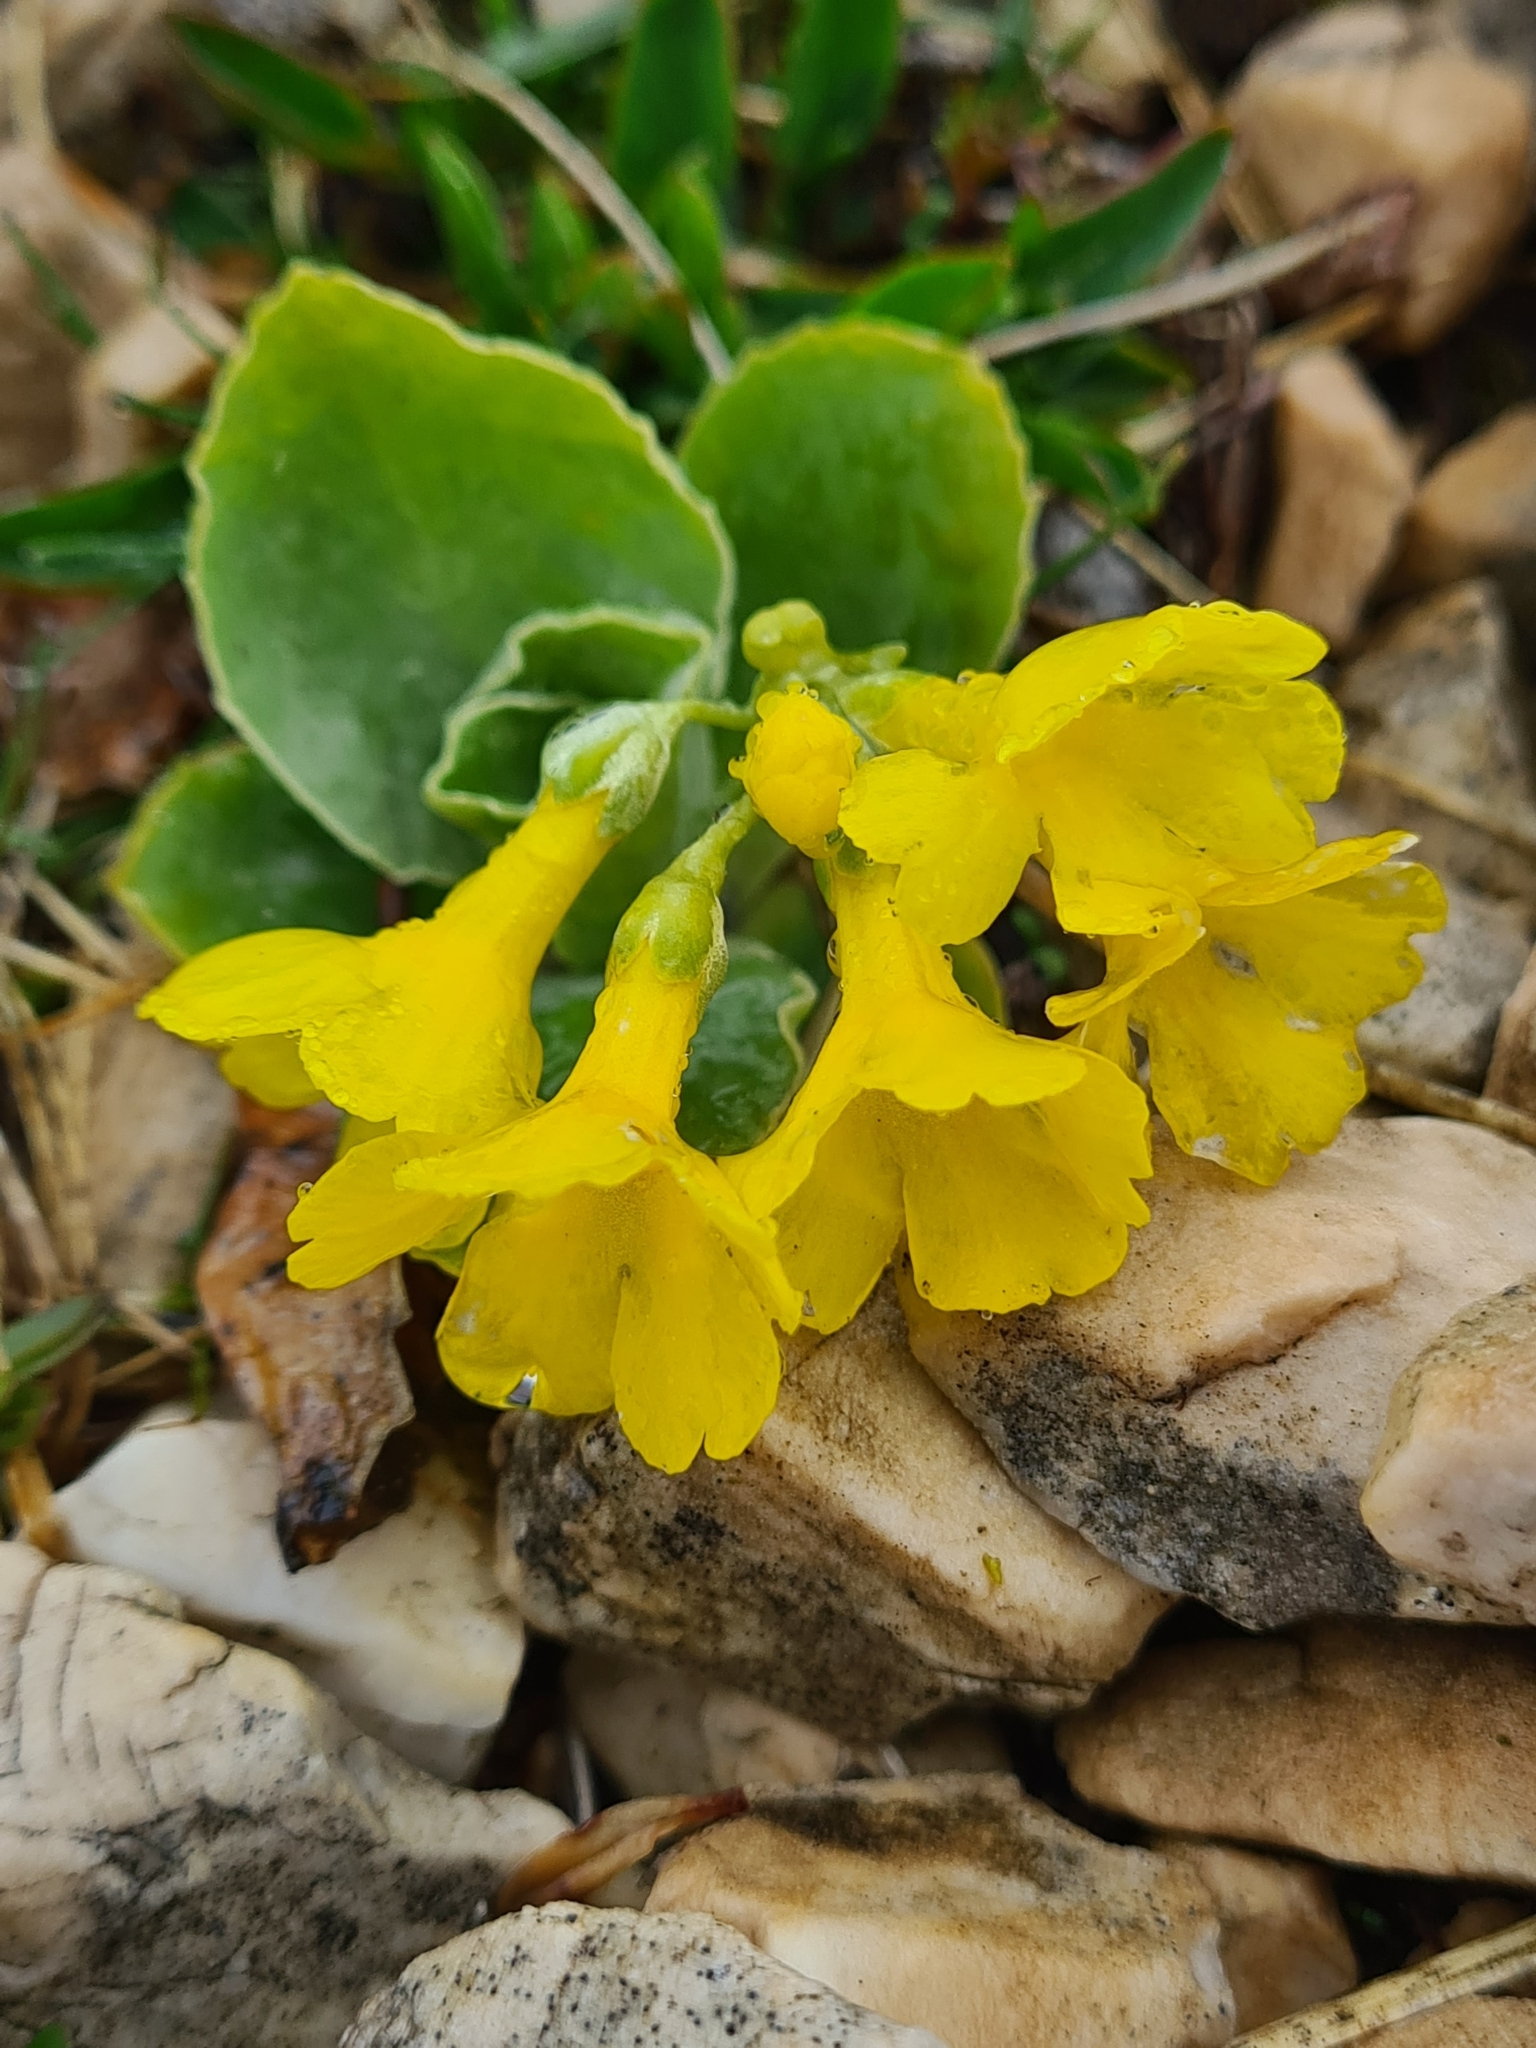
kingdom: Plantae
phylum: Tracheophyta
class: Magnoliopsida
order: Ericales
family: Primulaceae
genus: Primula
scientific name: Primula auricula
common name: Auricula
